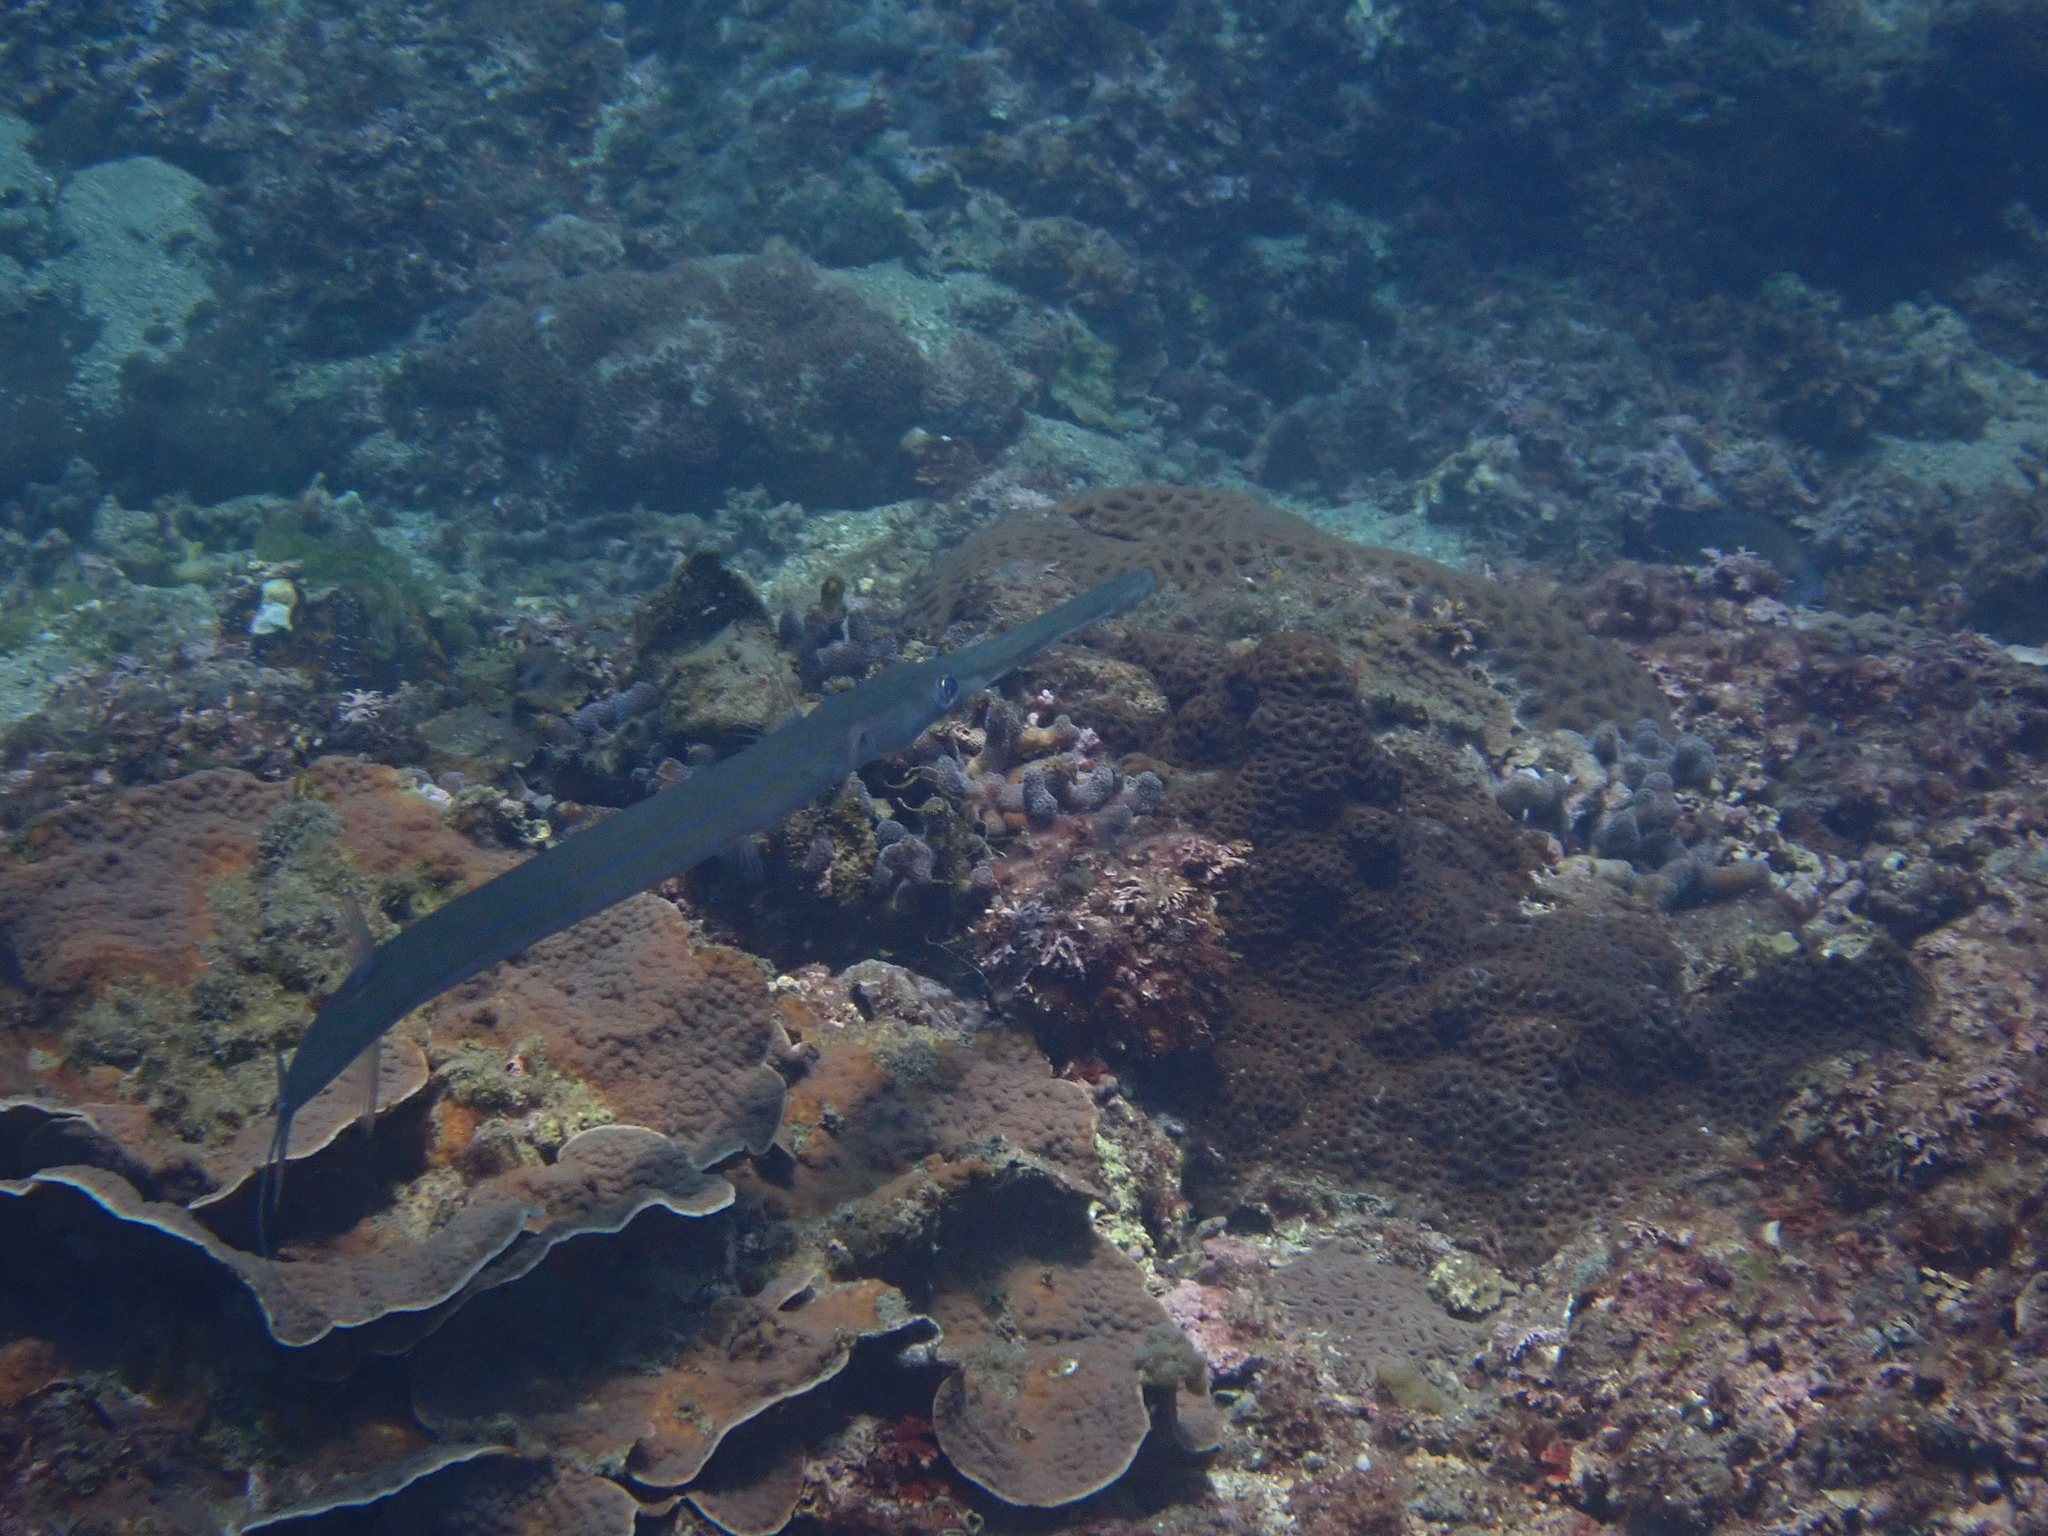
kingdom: Animalia
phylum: Chordata
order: Syngnathiformes
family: Fistulariidae
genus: Fistularia
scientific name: Fistularia commersonii
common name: Bluespotted cornetfish
